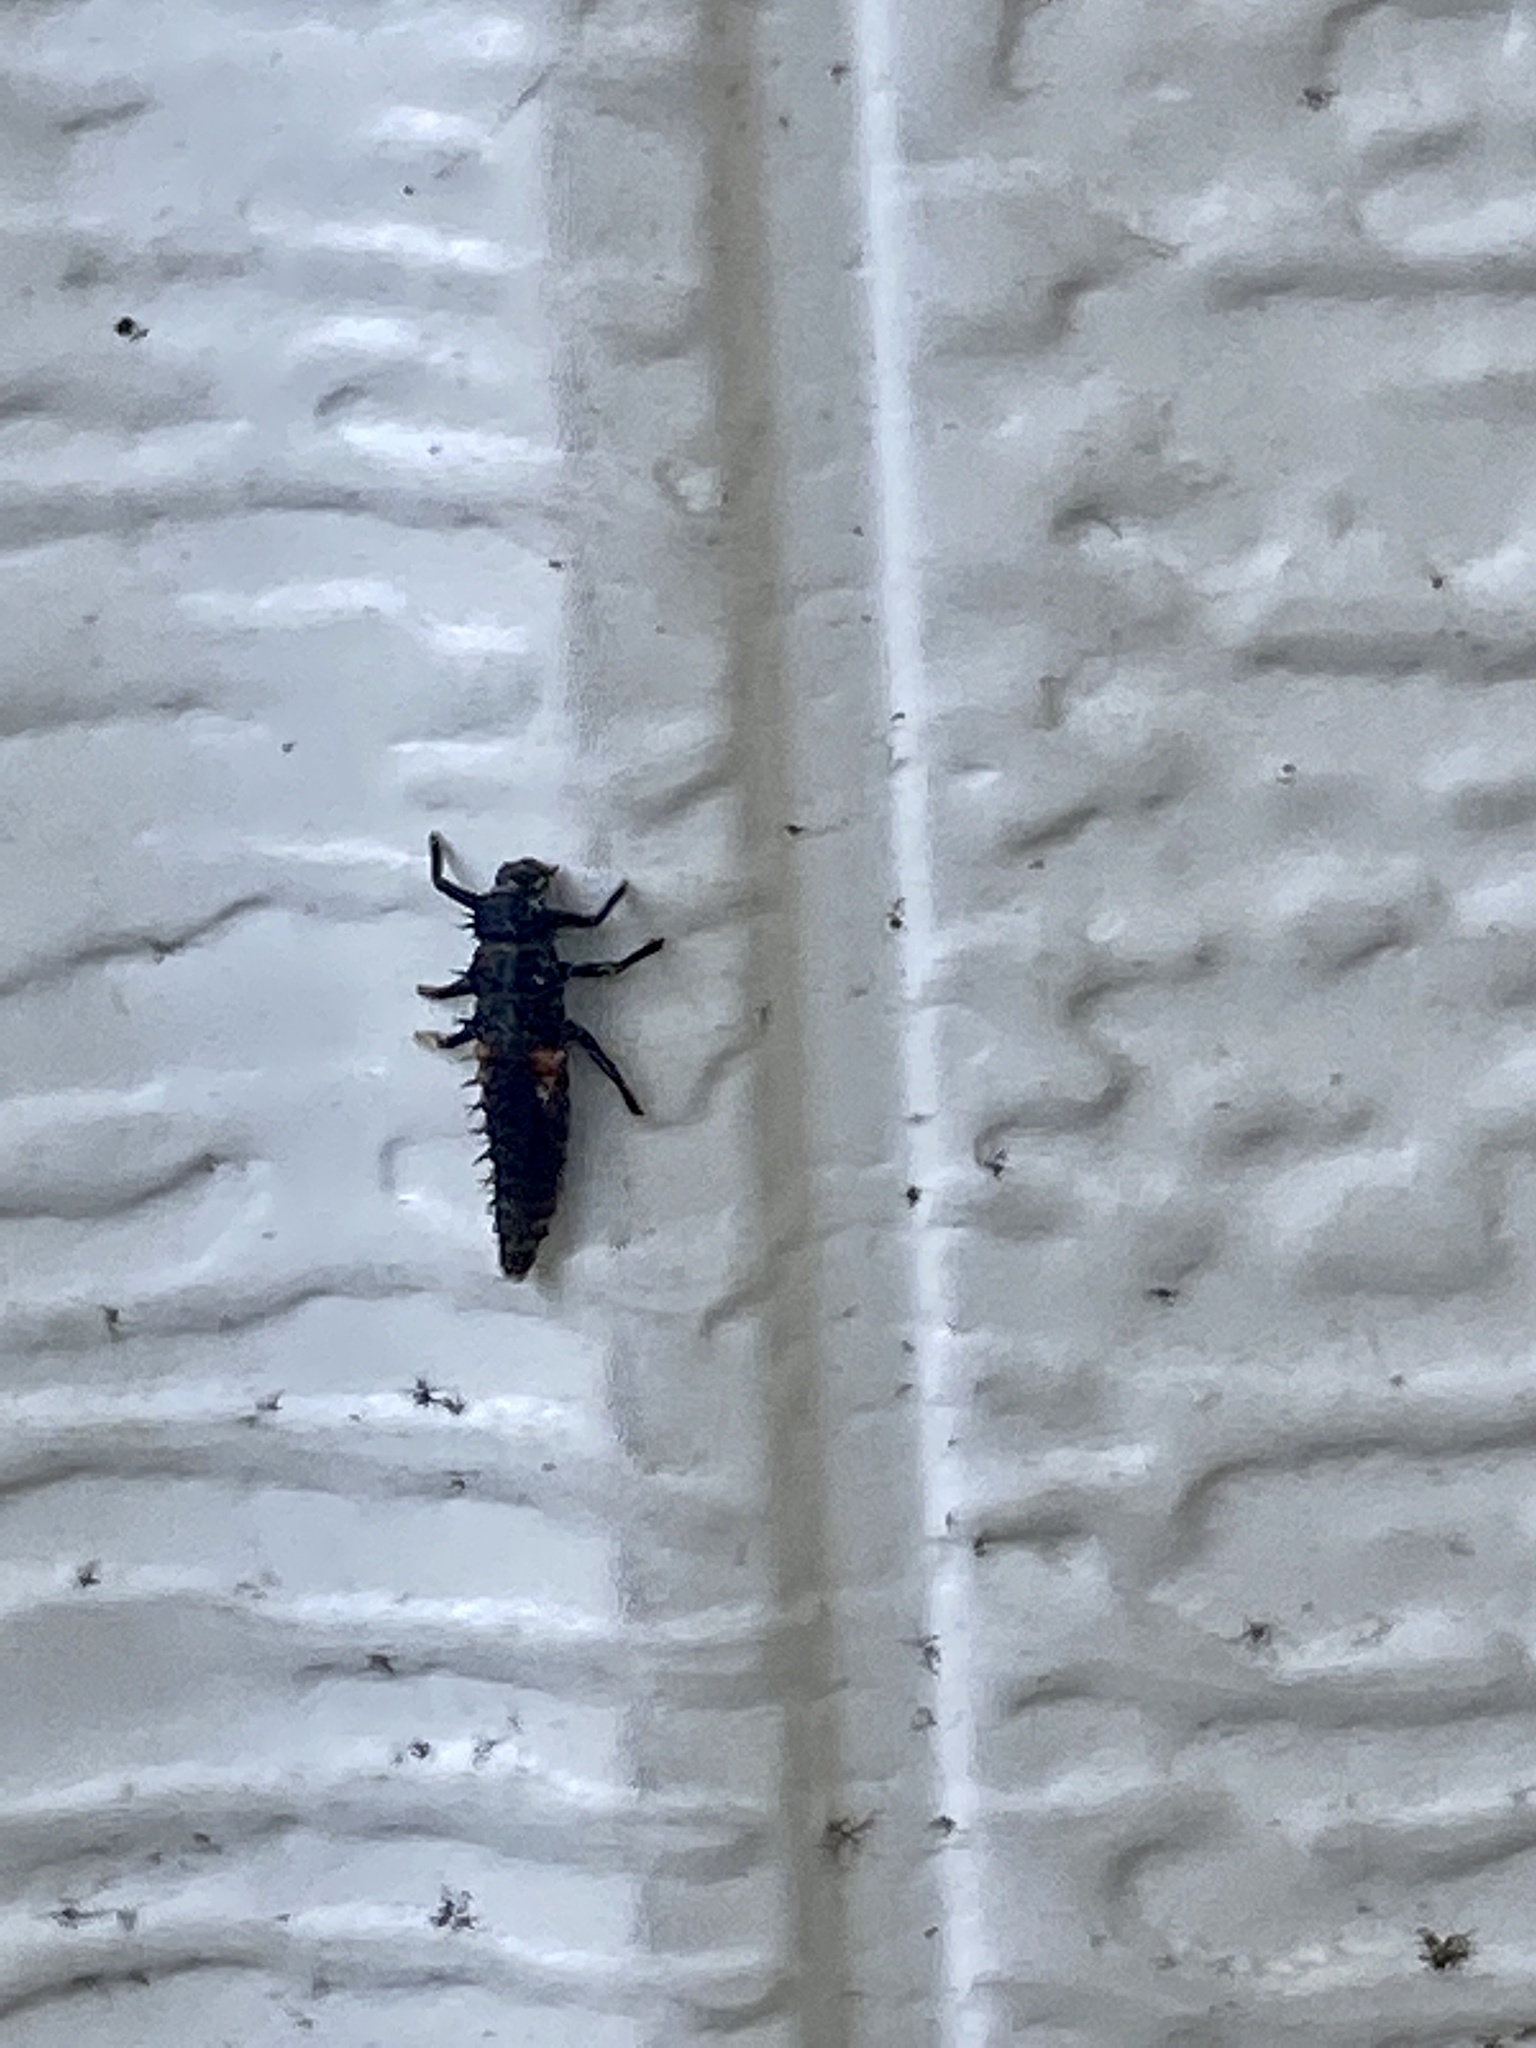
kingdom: Animalia
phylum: Arthropoda
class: Insecta
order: Coleoptera
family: Coccinellidae
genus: Harmonia
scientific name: Harmonia axyridis
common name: Harlequin ladybird
